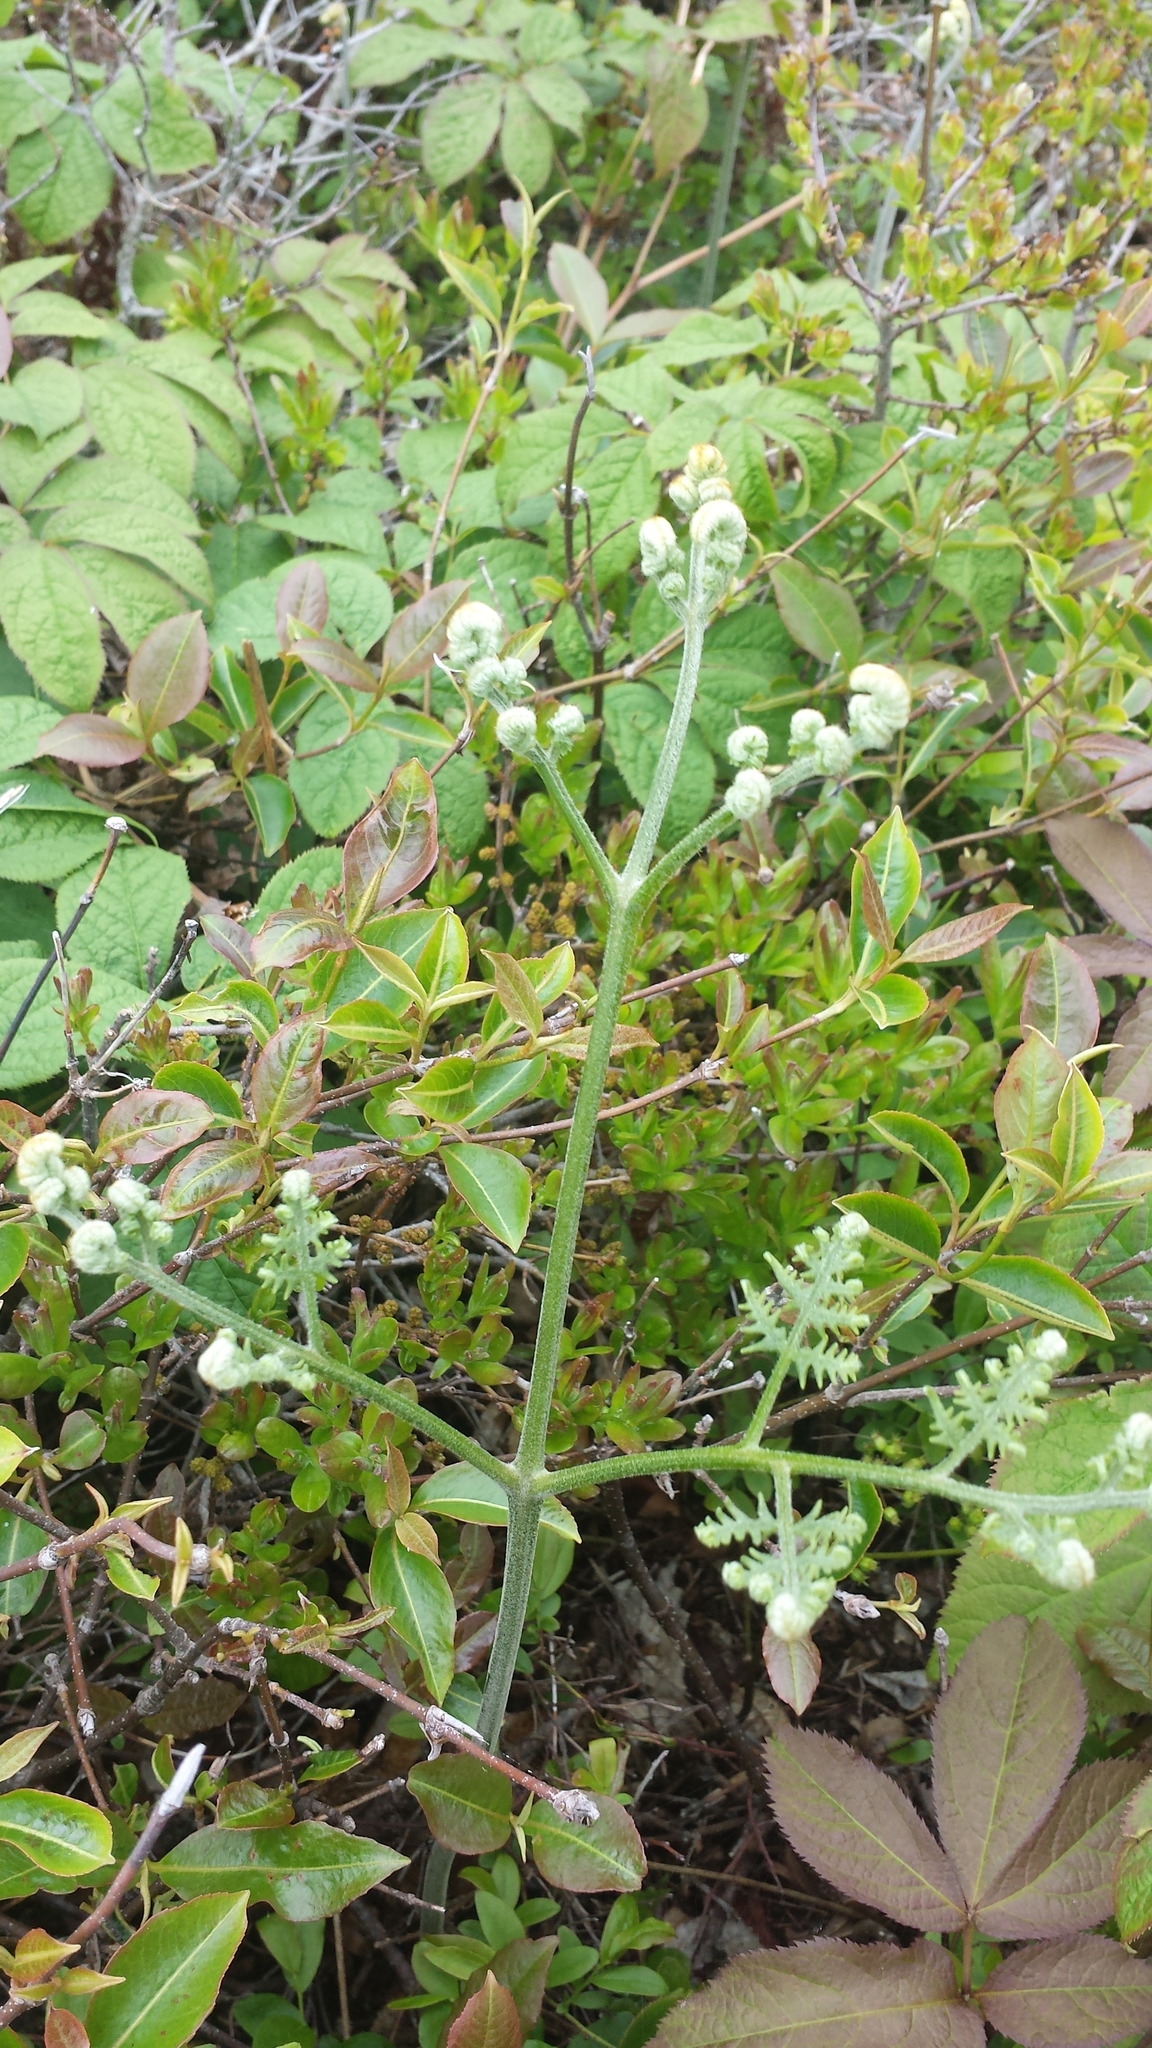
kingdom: Plantae
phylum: Tracheophyta
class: Polypodiopsida
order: Polypodiales
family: Dennstaedtiaceae
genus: Pteridium
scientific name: Pteridium aquilinum
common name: Bracken
